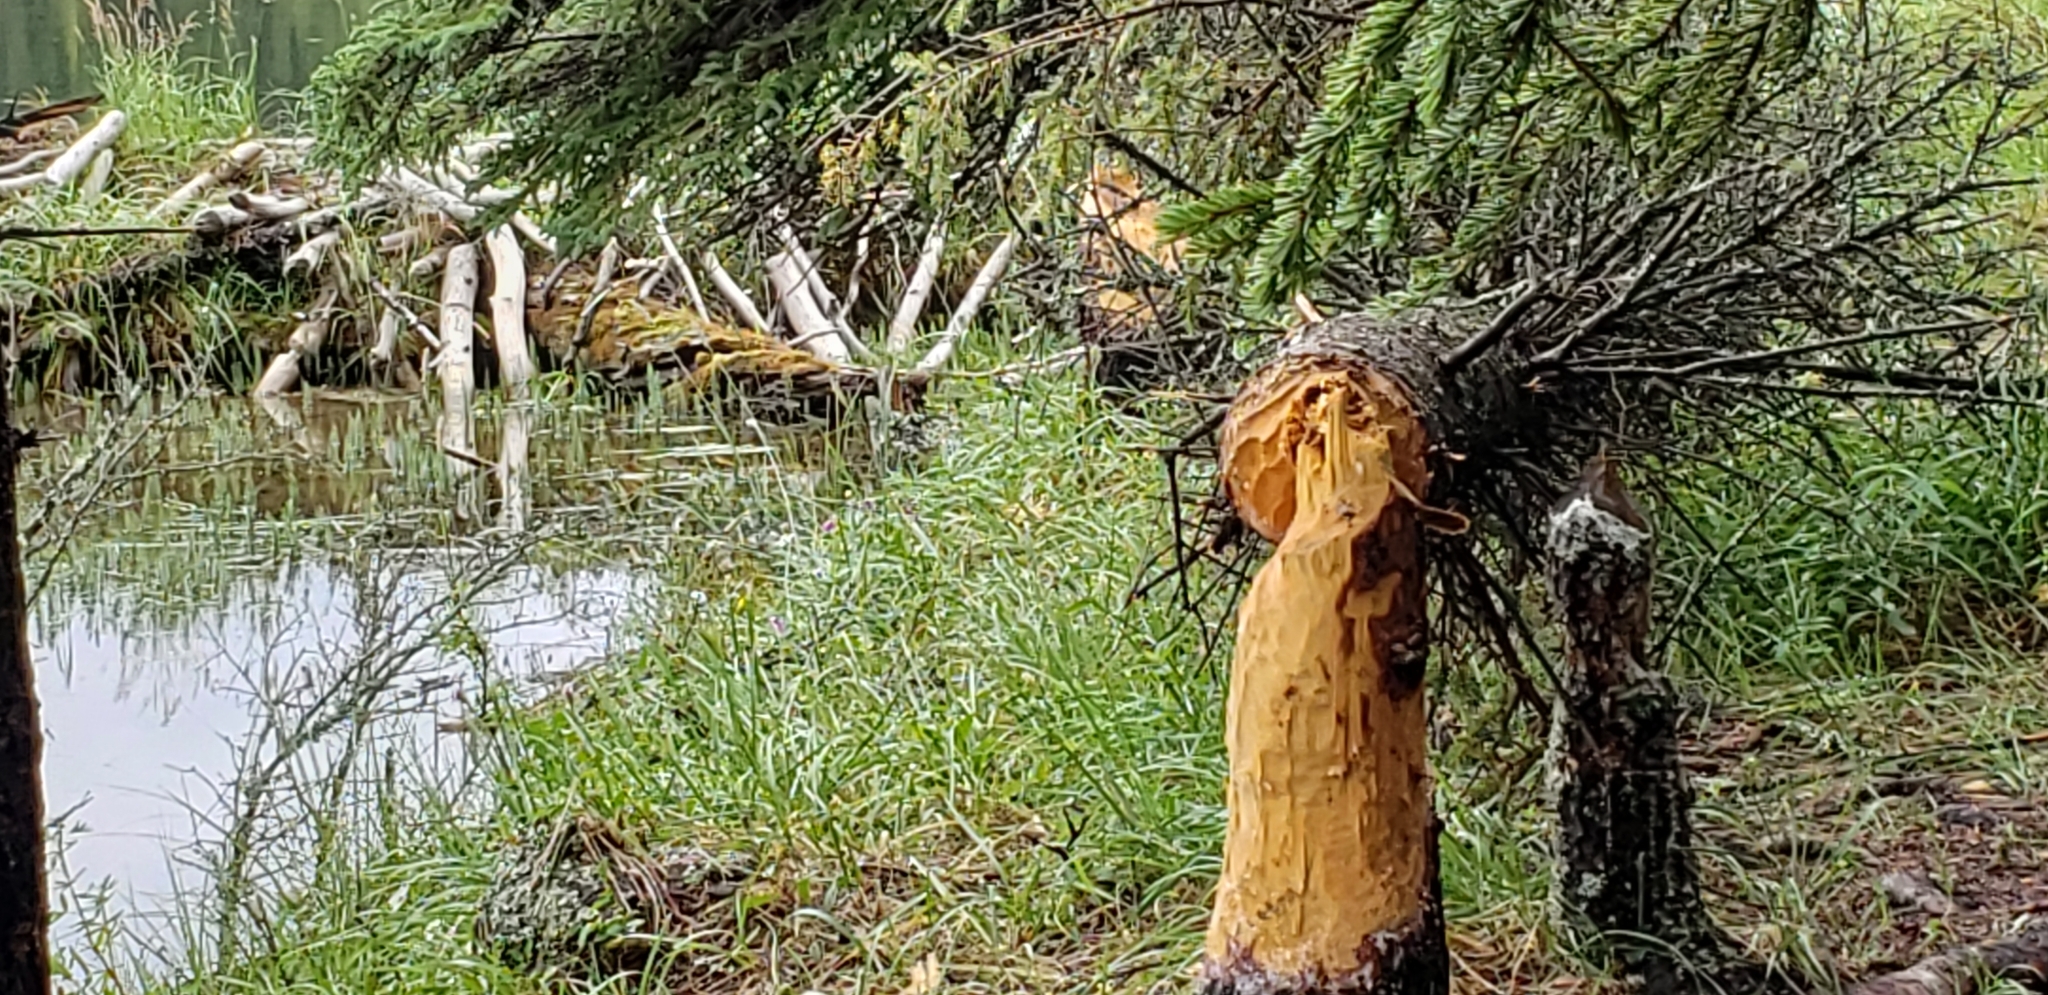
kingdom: Animalia
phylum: Chordata
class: Mammalia
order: Rodentia
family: Castoridae
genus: Castor
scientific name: Castor canadensis
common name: American beaver
